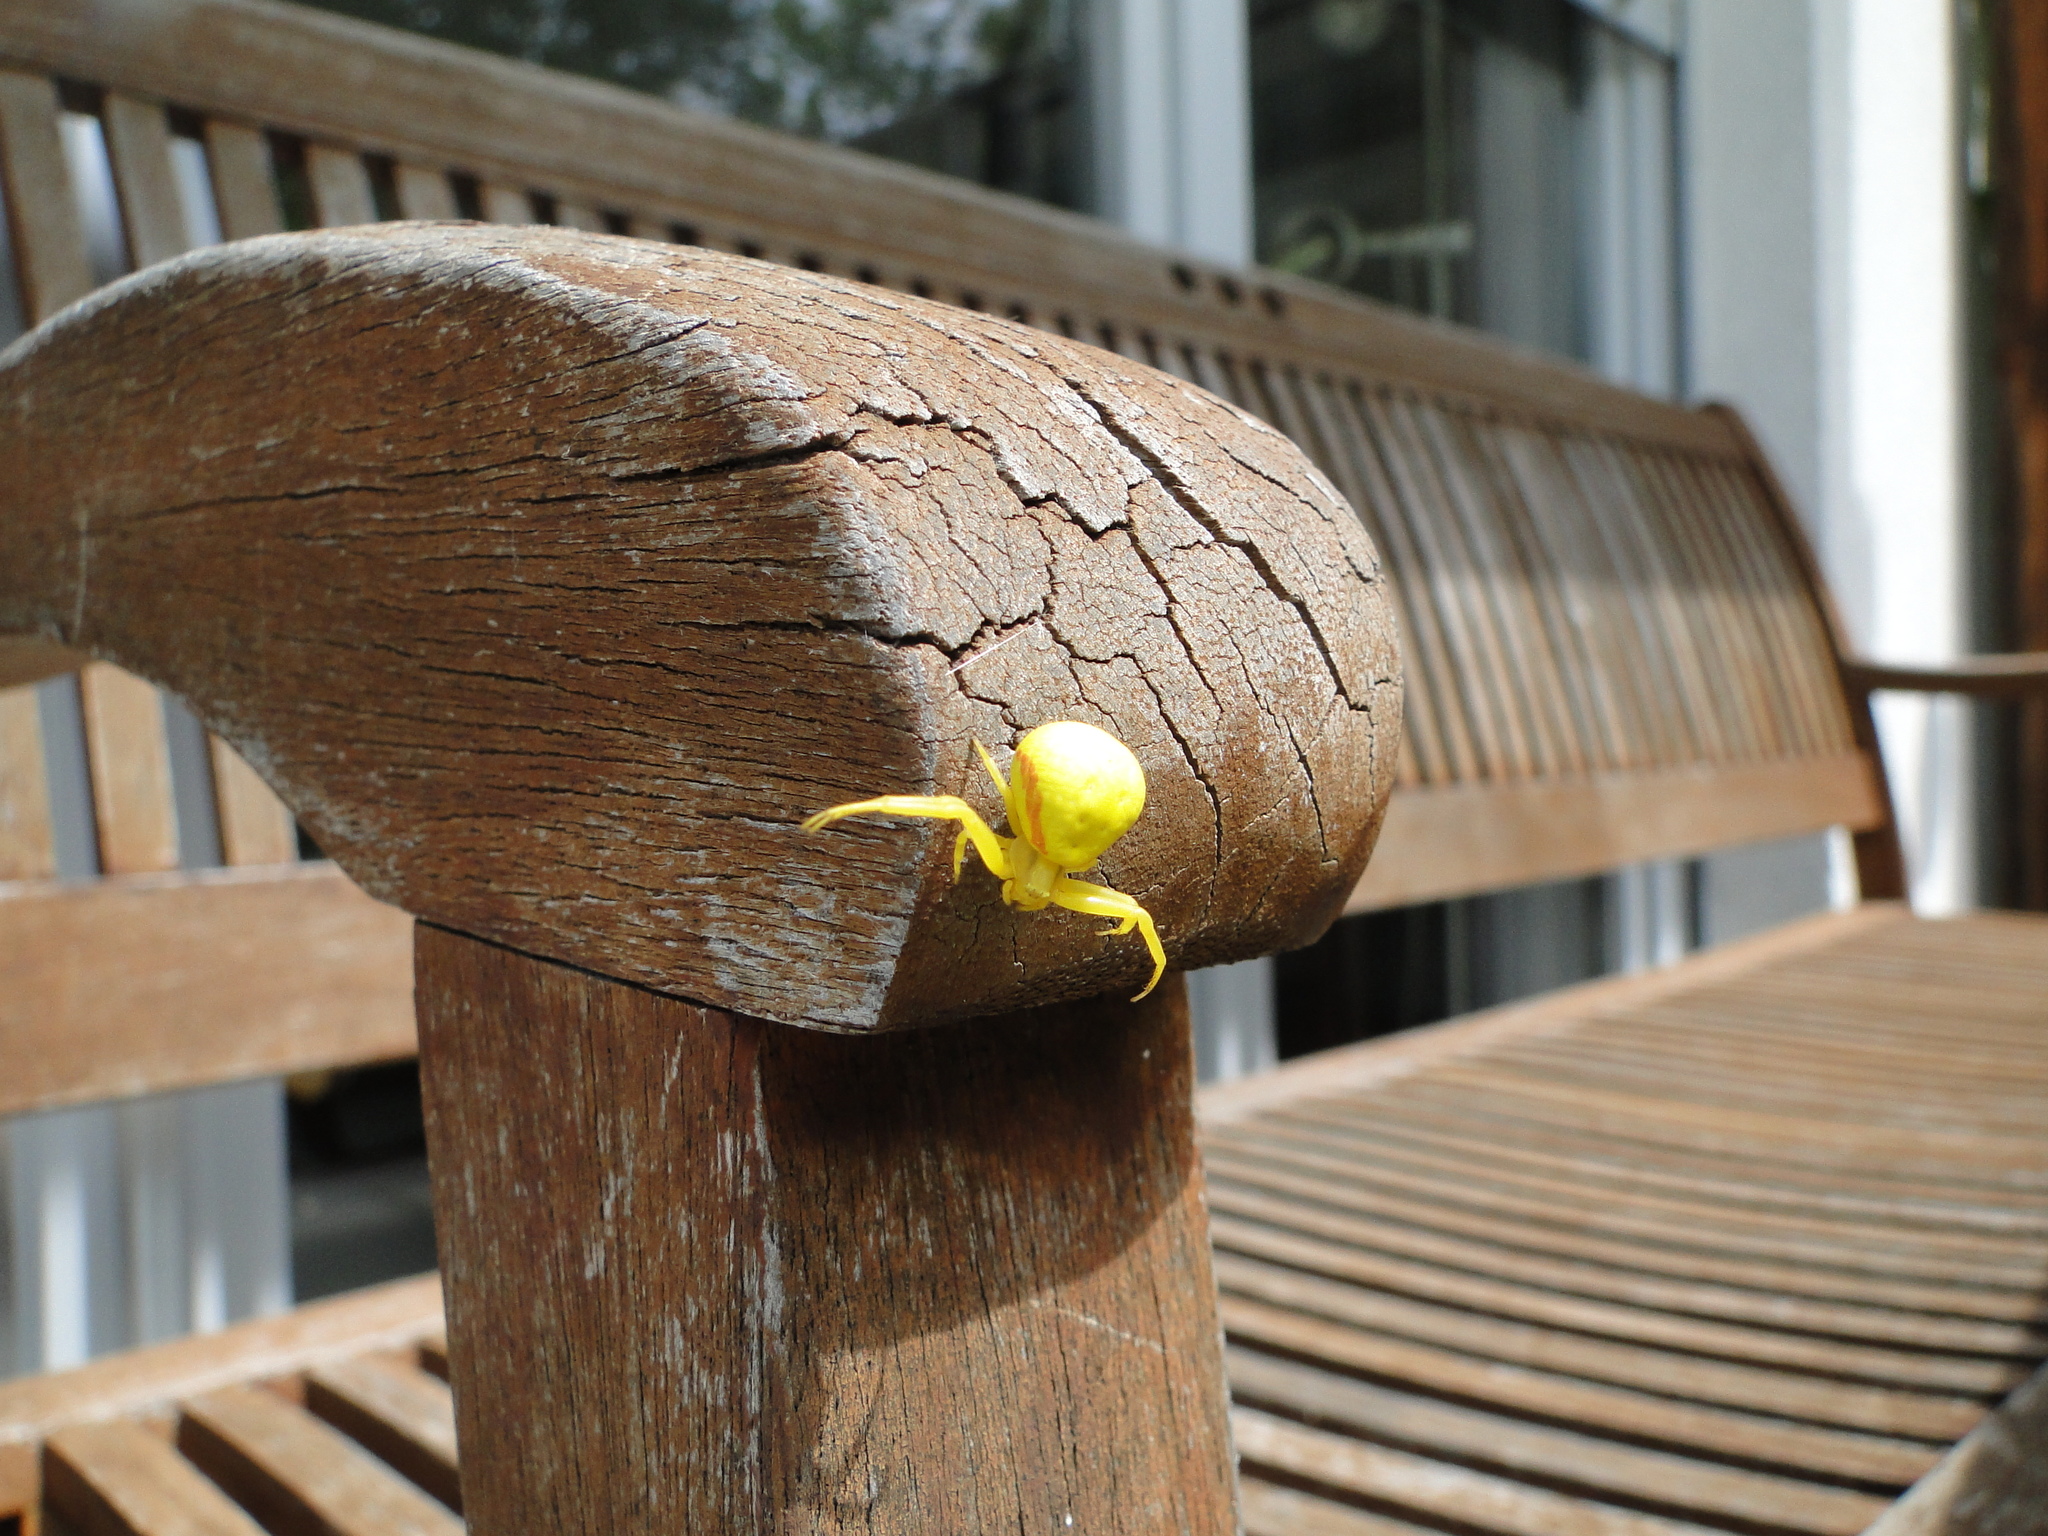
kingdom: Animalia
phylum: Arthropoda
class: Arachnida
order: Araneae
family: Thomisidae
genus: Misumena
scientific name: Misumena vatia
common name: Goldenrod crab spider
